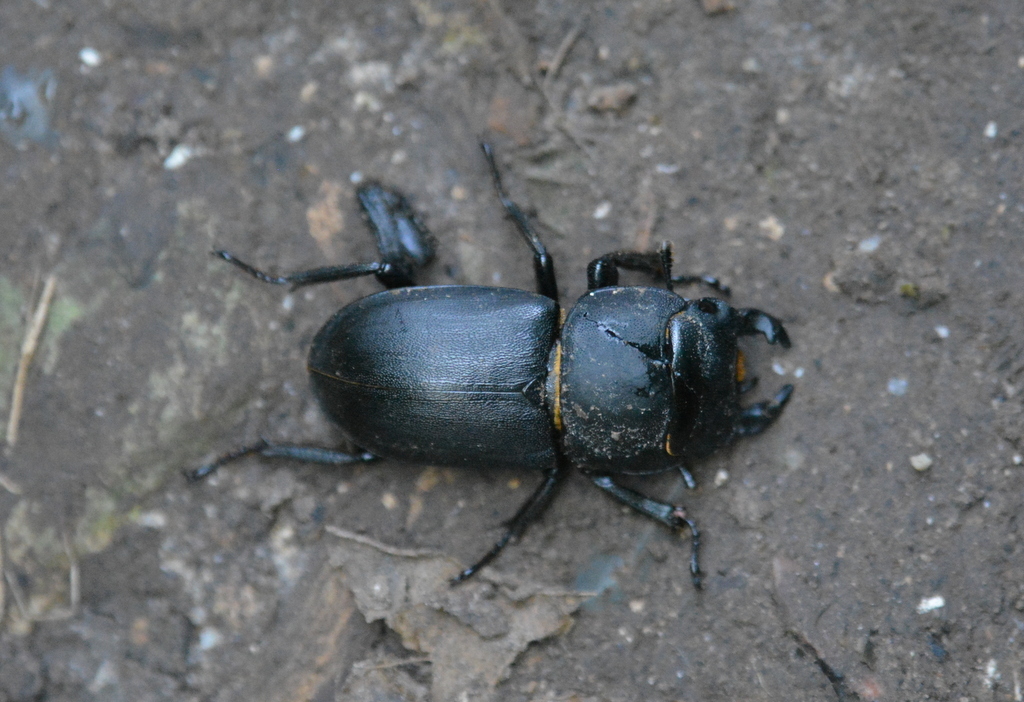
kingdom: Animalia
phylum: Arthropoda
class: Insecta
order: Coleoptera
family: Lucanidae
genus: Dorcus
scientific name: Dorcus parallelipipedus
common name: Lesser stag beetle
